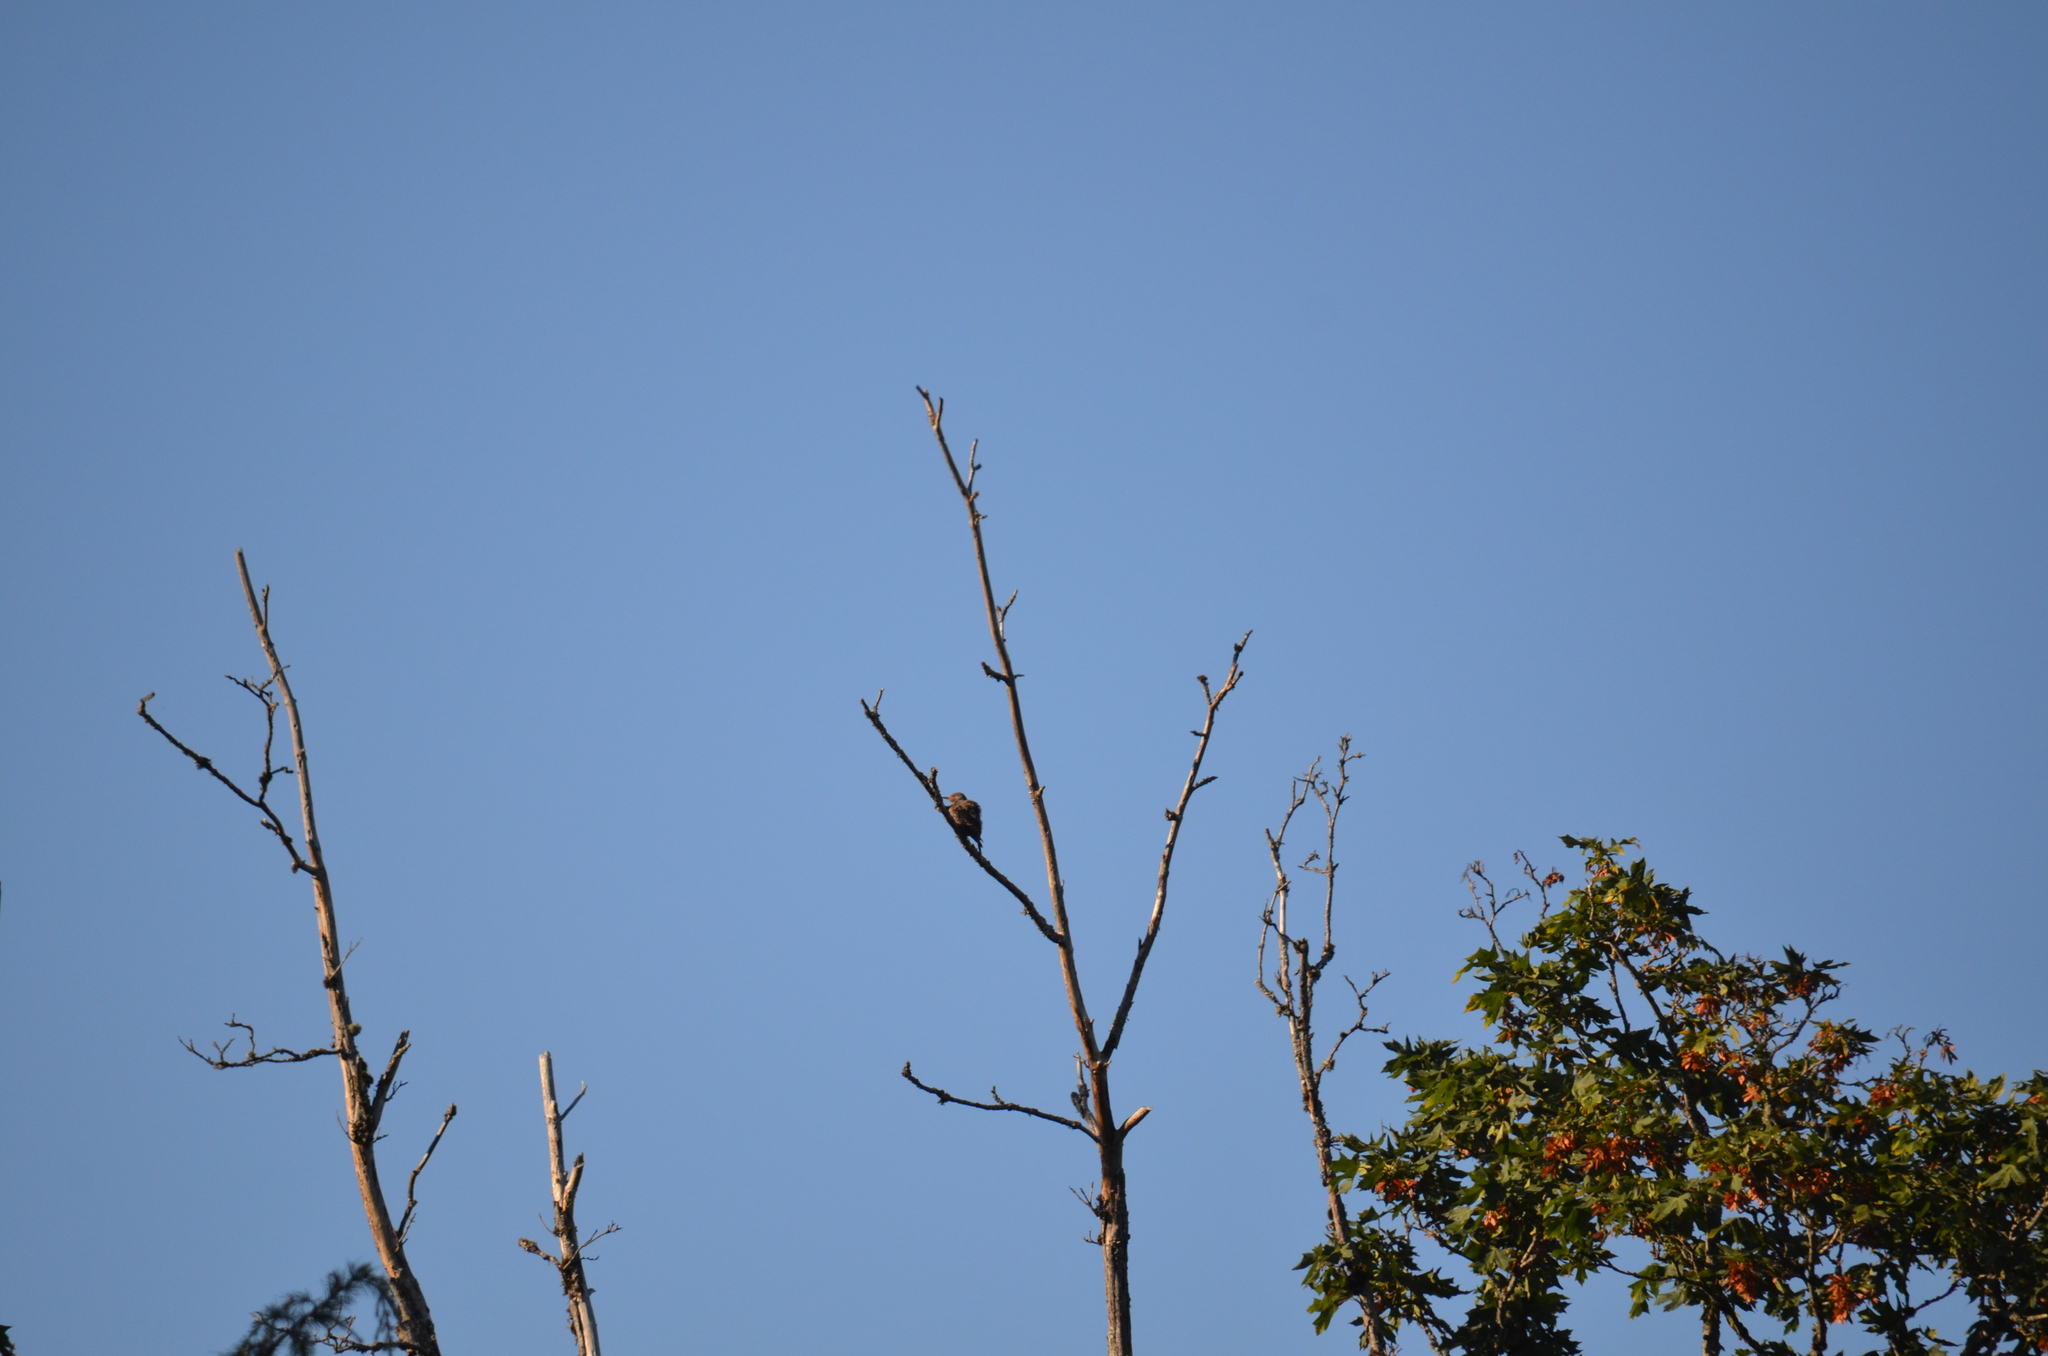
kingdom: Animalia
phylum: Chordata
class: Aves
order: Piciformes
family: Picidae
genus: Colaptes
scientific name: Colaptes auratus
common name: Northern flicker
